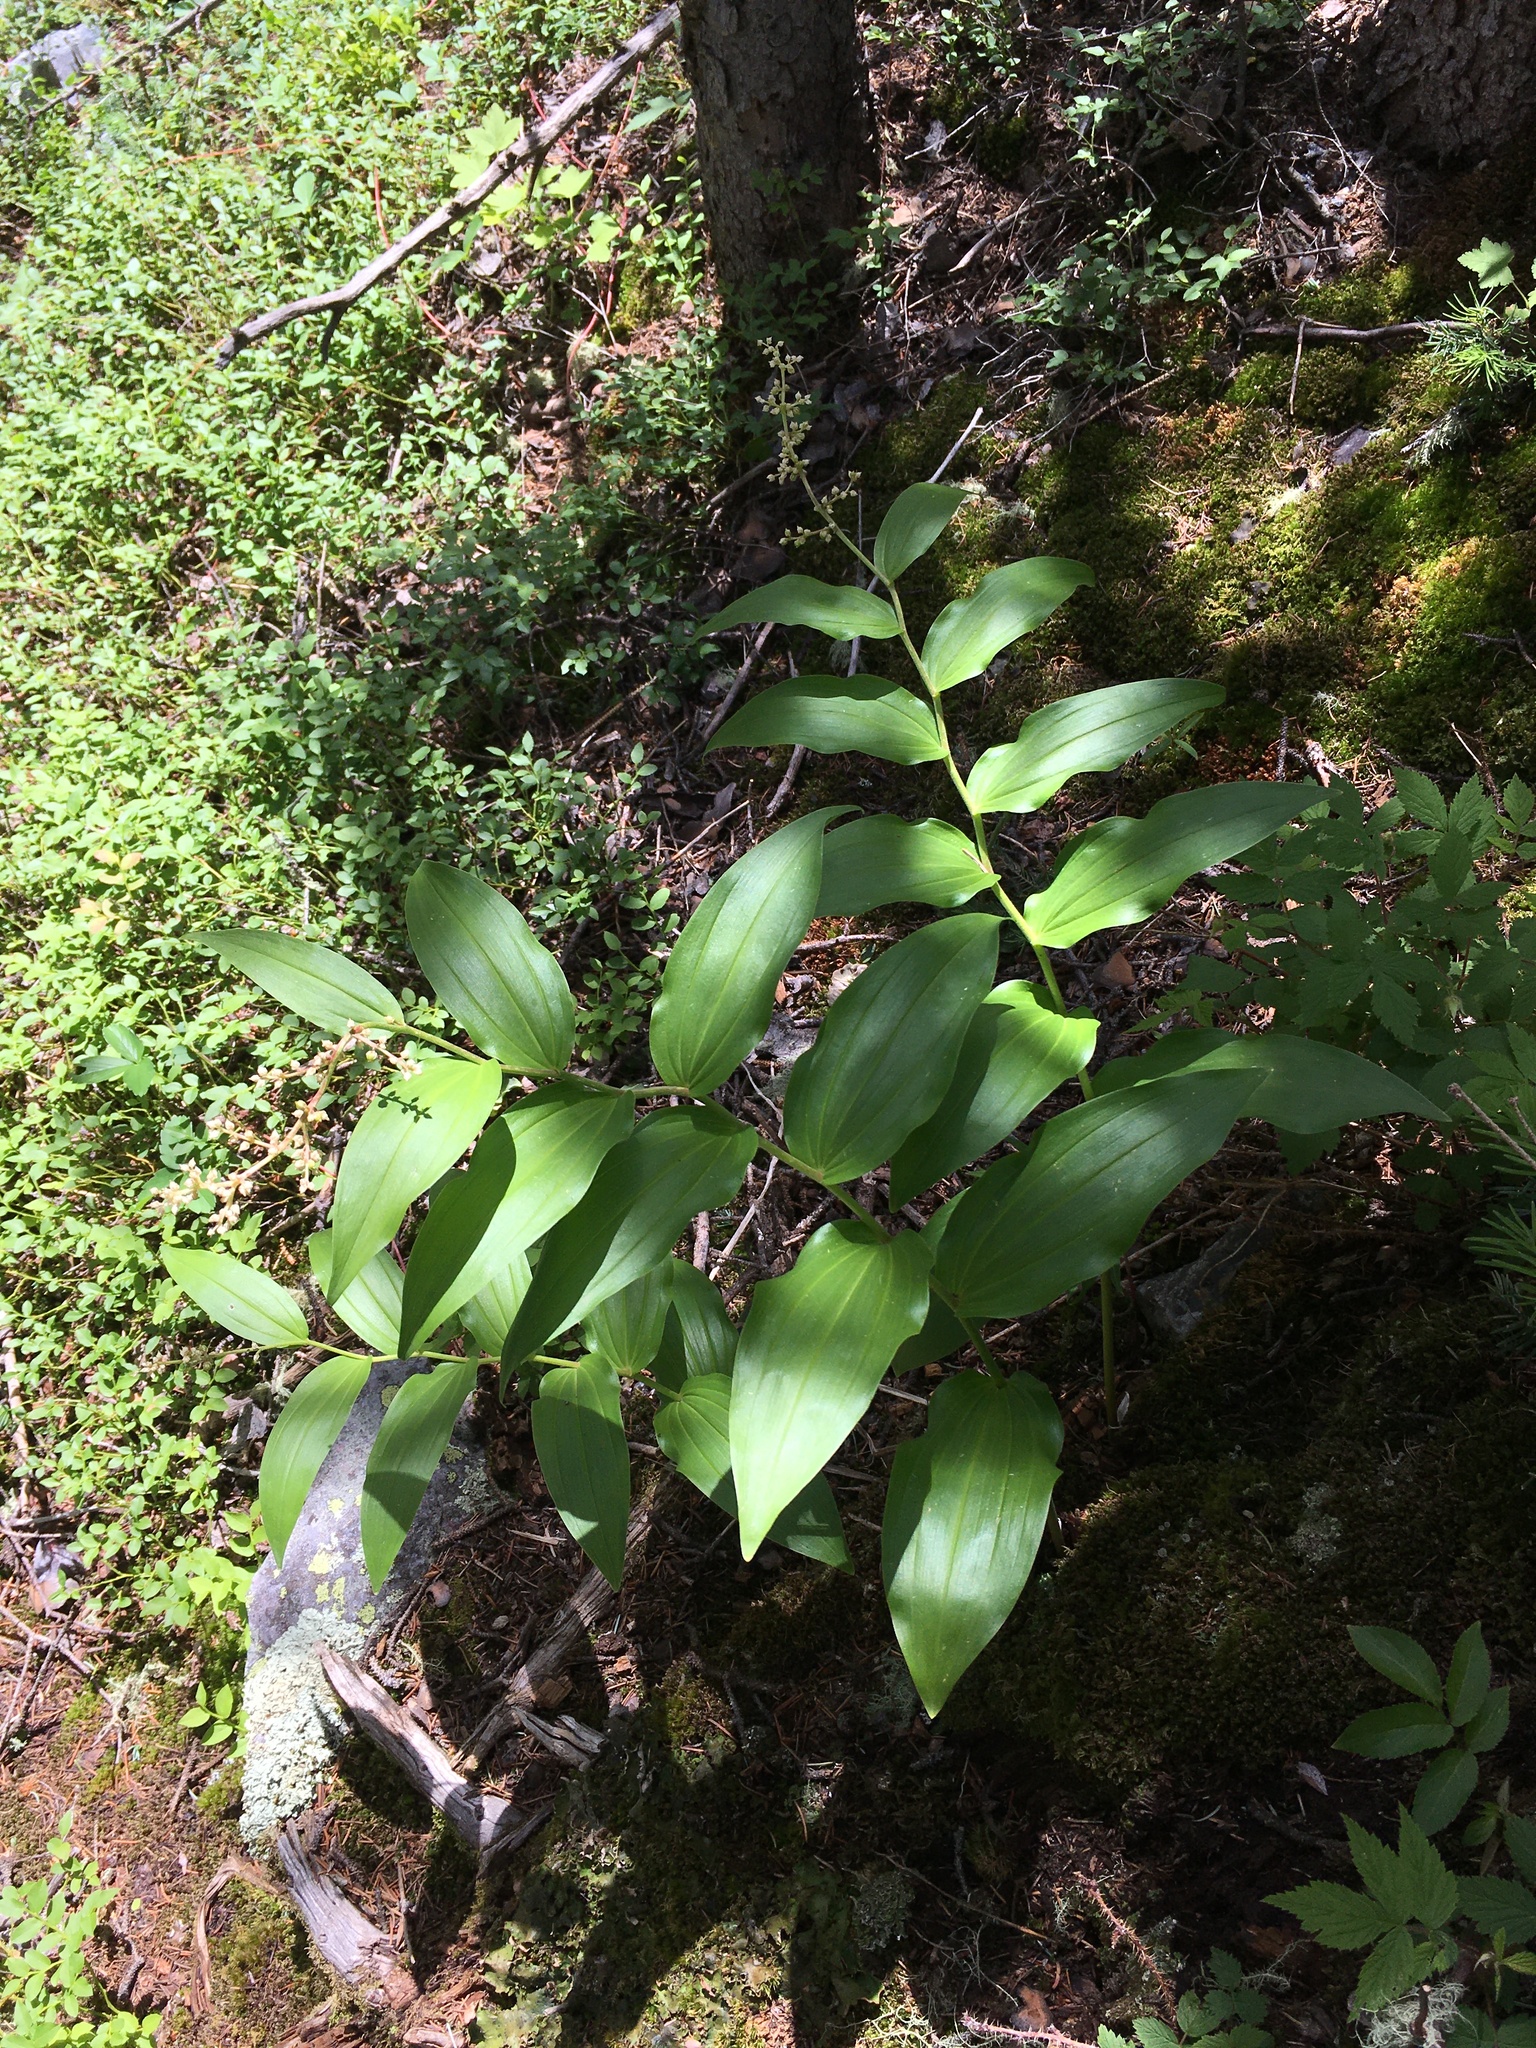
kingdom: Plantae
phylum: Tracheophyta
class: Liliopsida
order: Asparagales
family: Asparagaceae
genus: Maianthemum
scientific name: Maianthemum racemosum
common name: False spikenard
